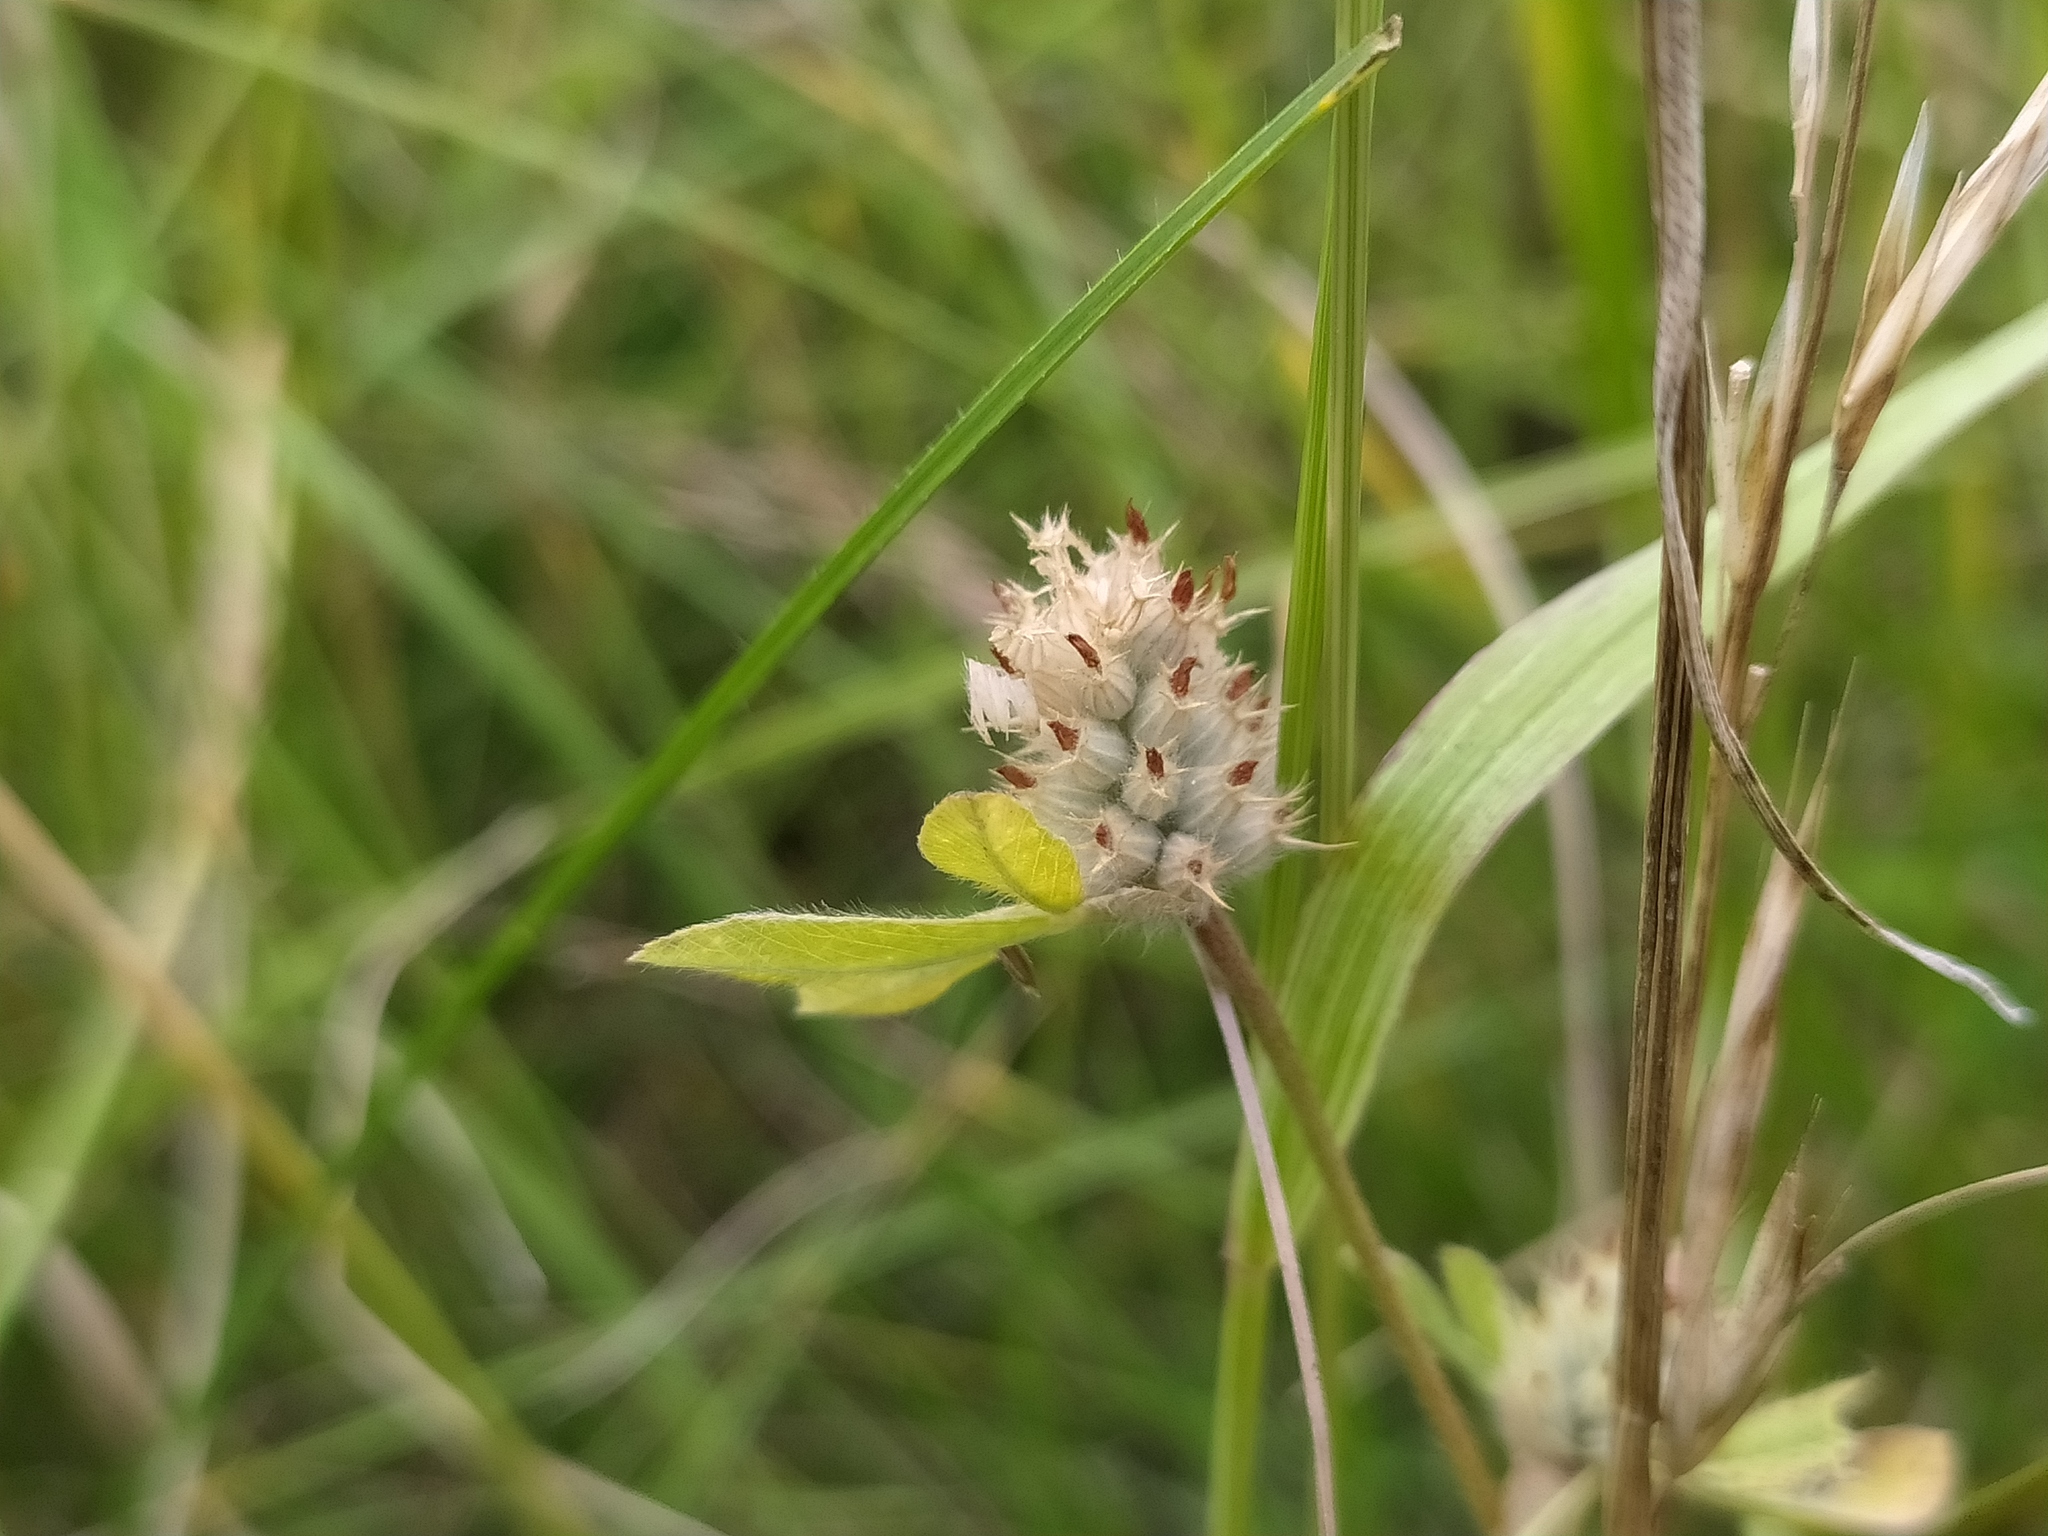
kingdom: Plantae
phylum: Tracheophyta
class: Magnoliopsida
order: Fabales
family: Fabaceae
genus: Trifolium
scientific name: Trifolium striatum
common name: Knotted clover
